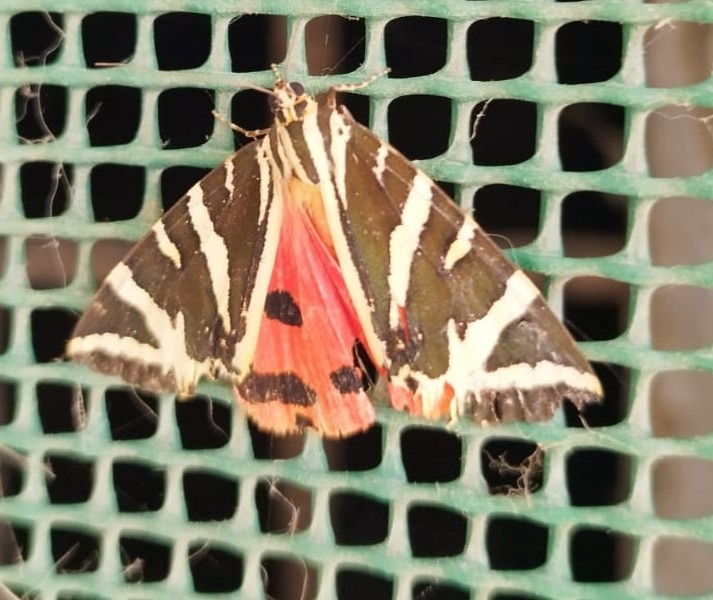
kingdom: Animalia
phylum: Arthropoda
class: Insecta
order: Lepidoptera
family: Erebidae
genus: Euplagia
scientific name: Euplagia quadripunctaria
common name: Jersey tiger
